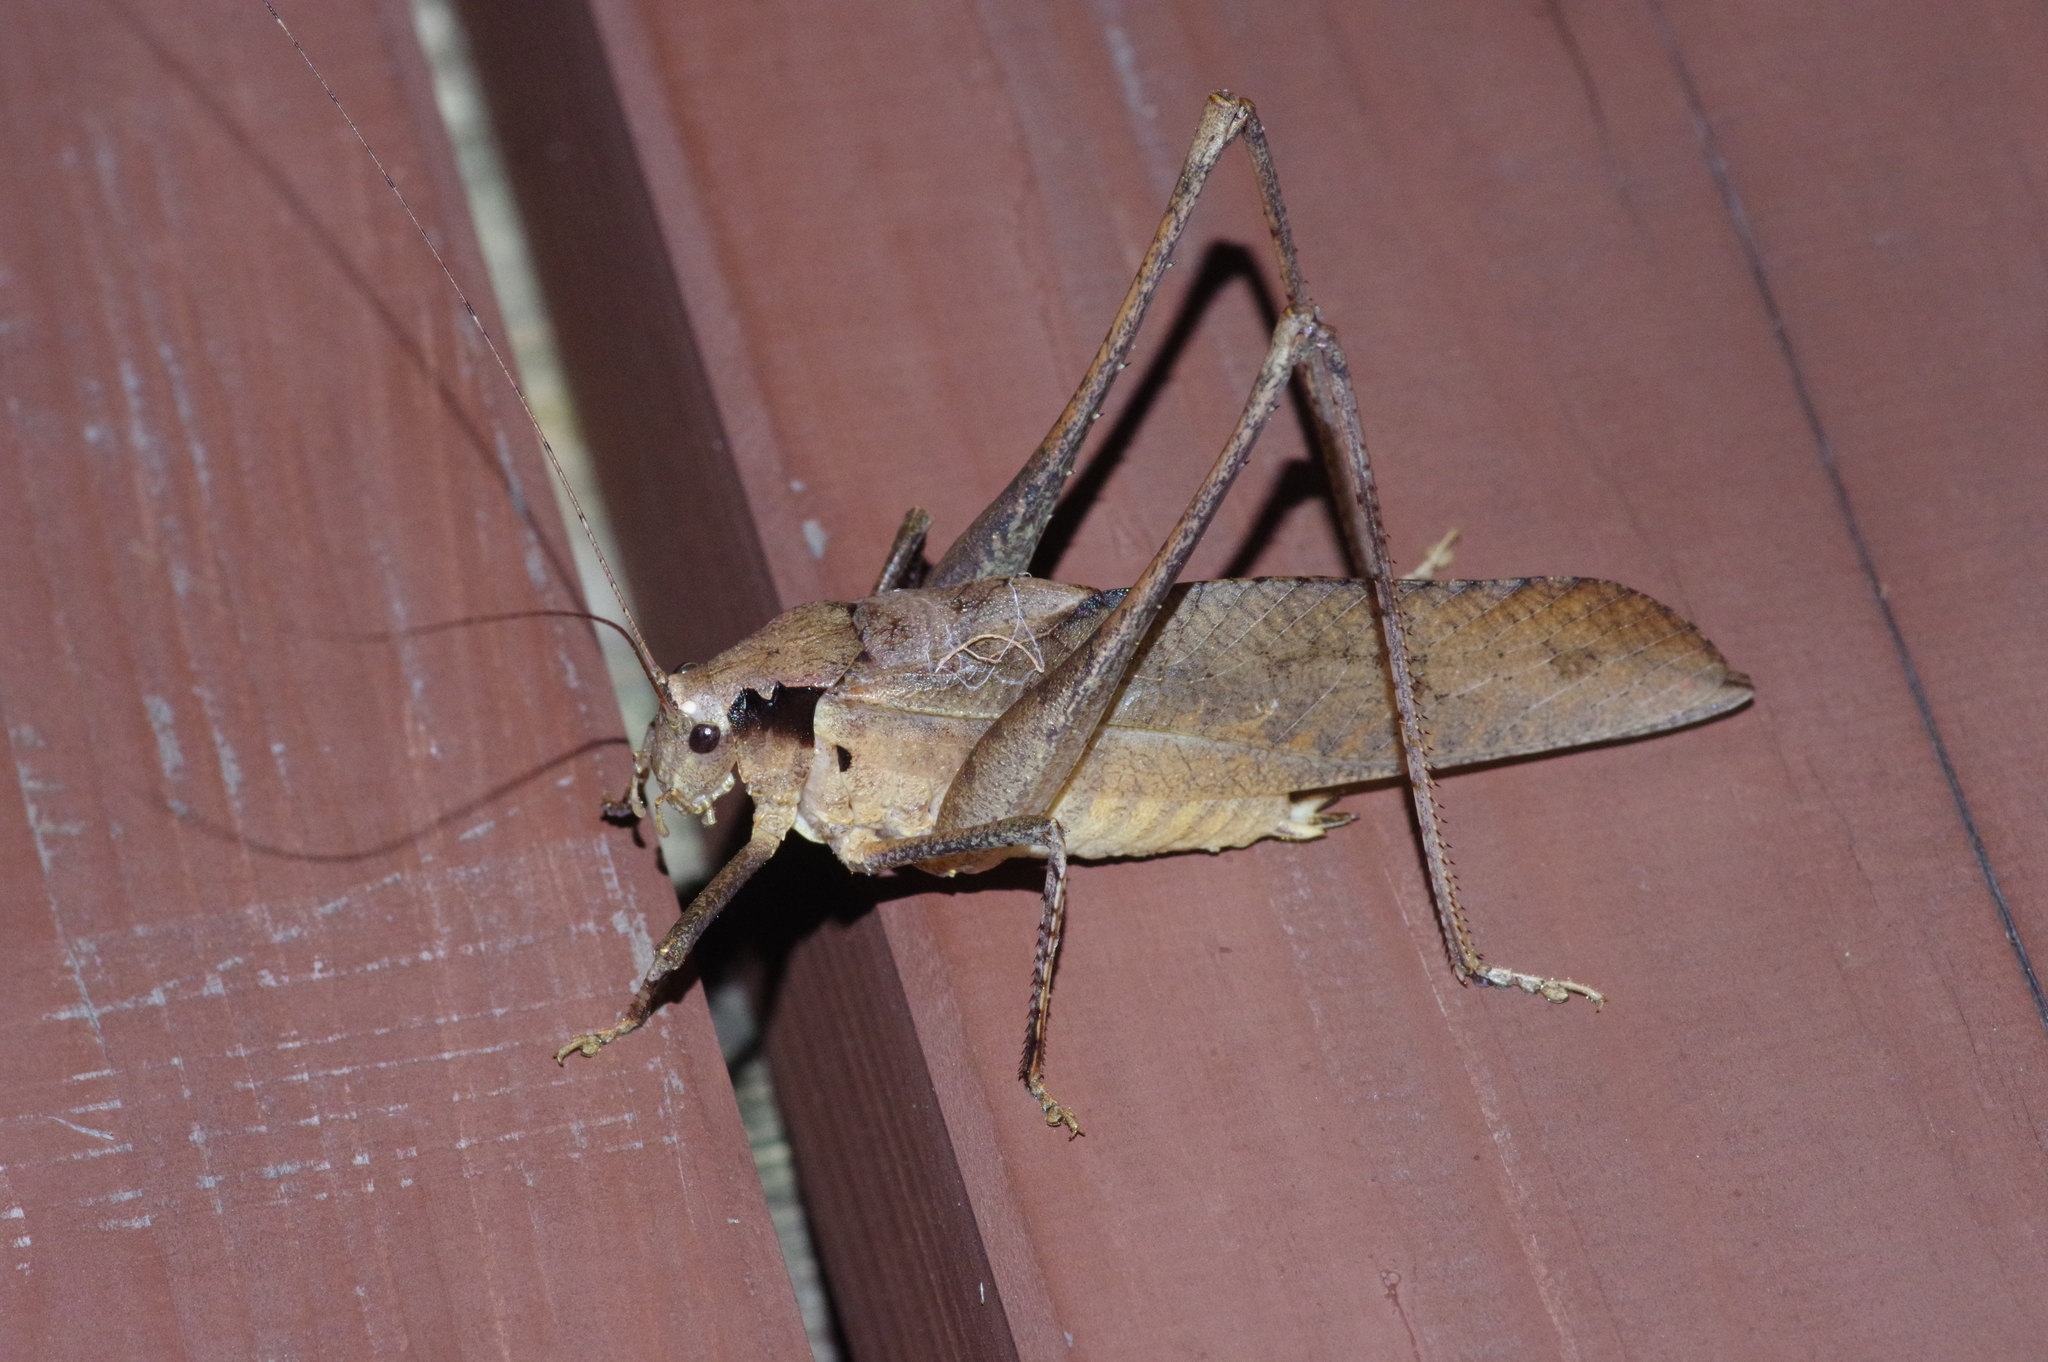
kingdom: Animalia
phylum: Arthropoda
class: Insecta
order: Orthoptera
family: Tettigoniidae
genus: Mecopoda
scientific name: Mecopoda elongata
